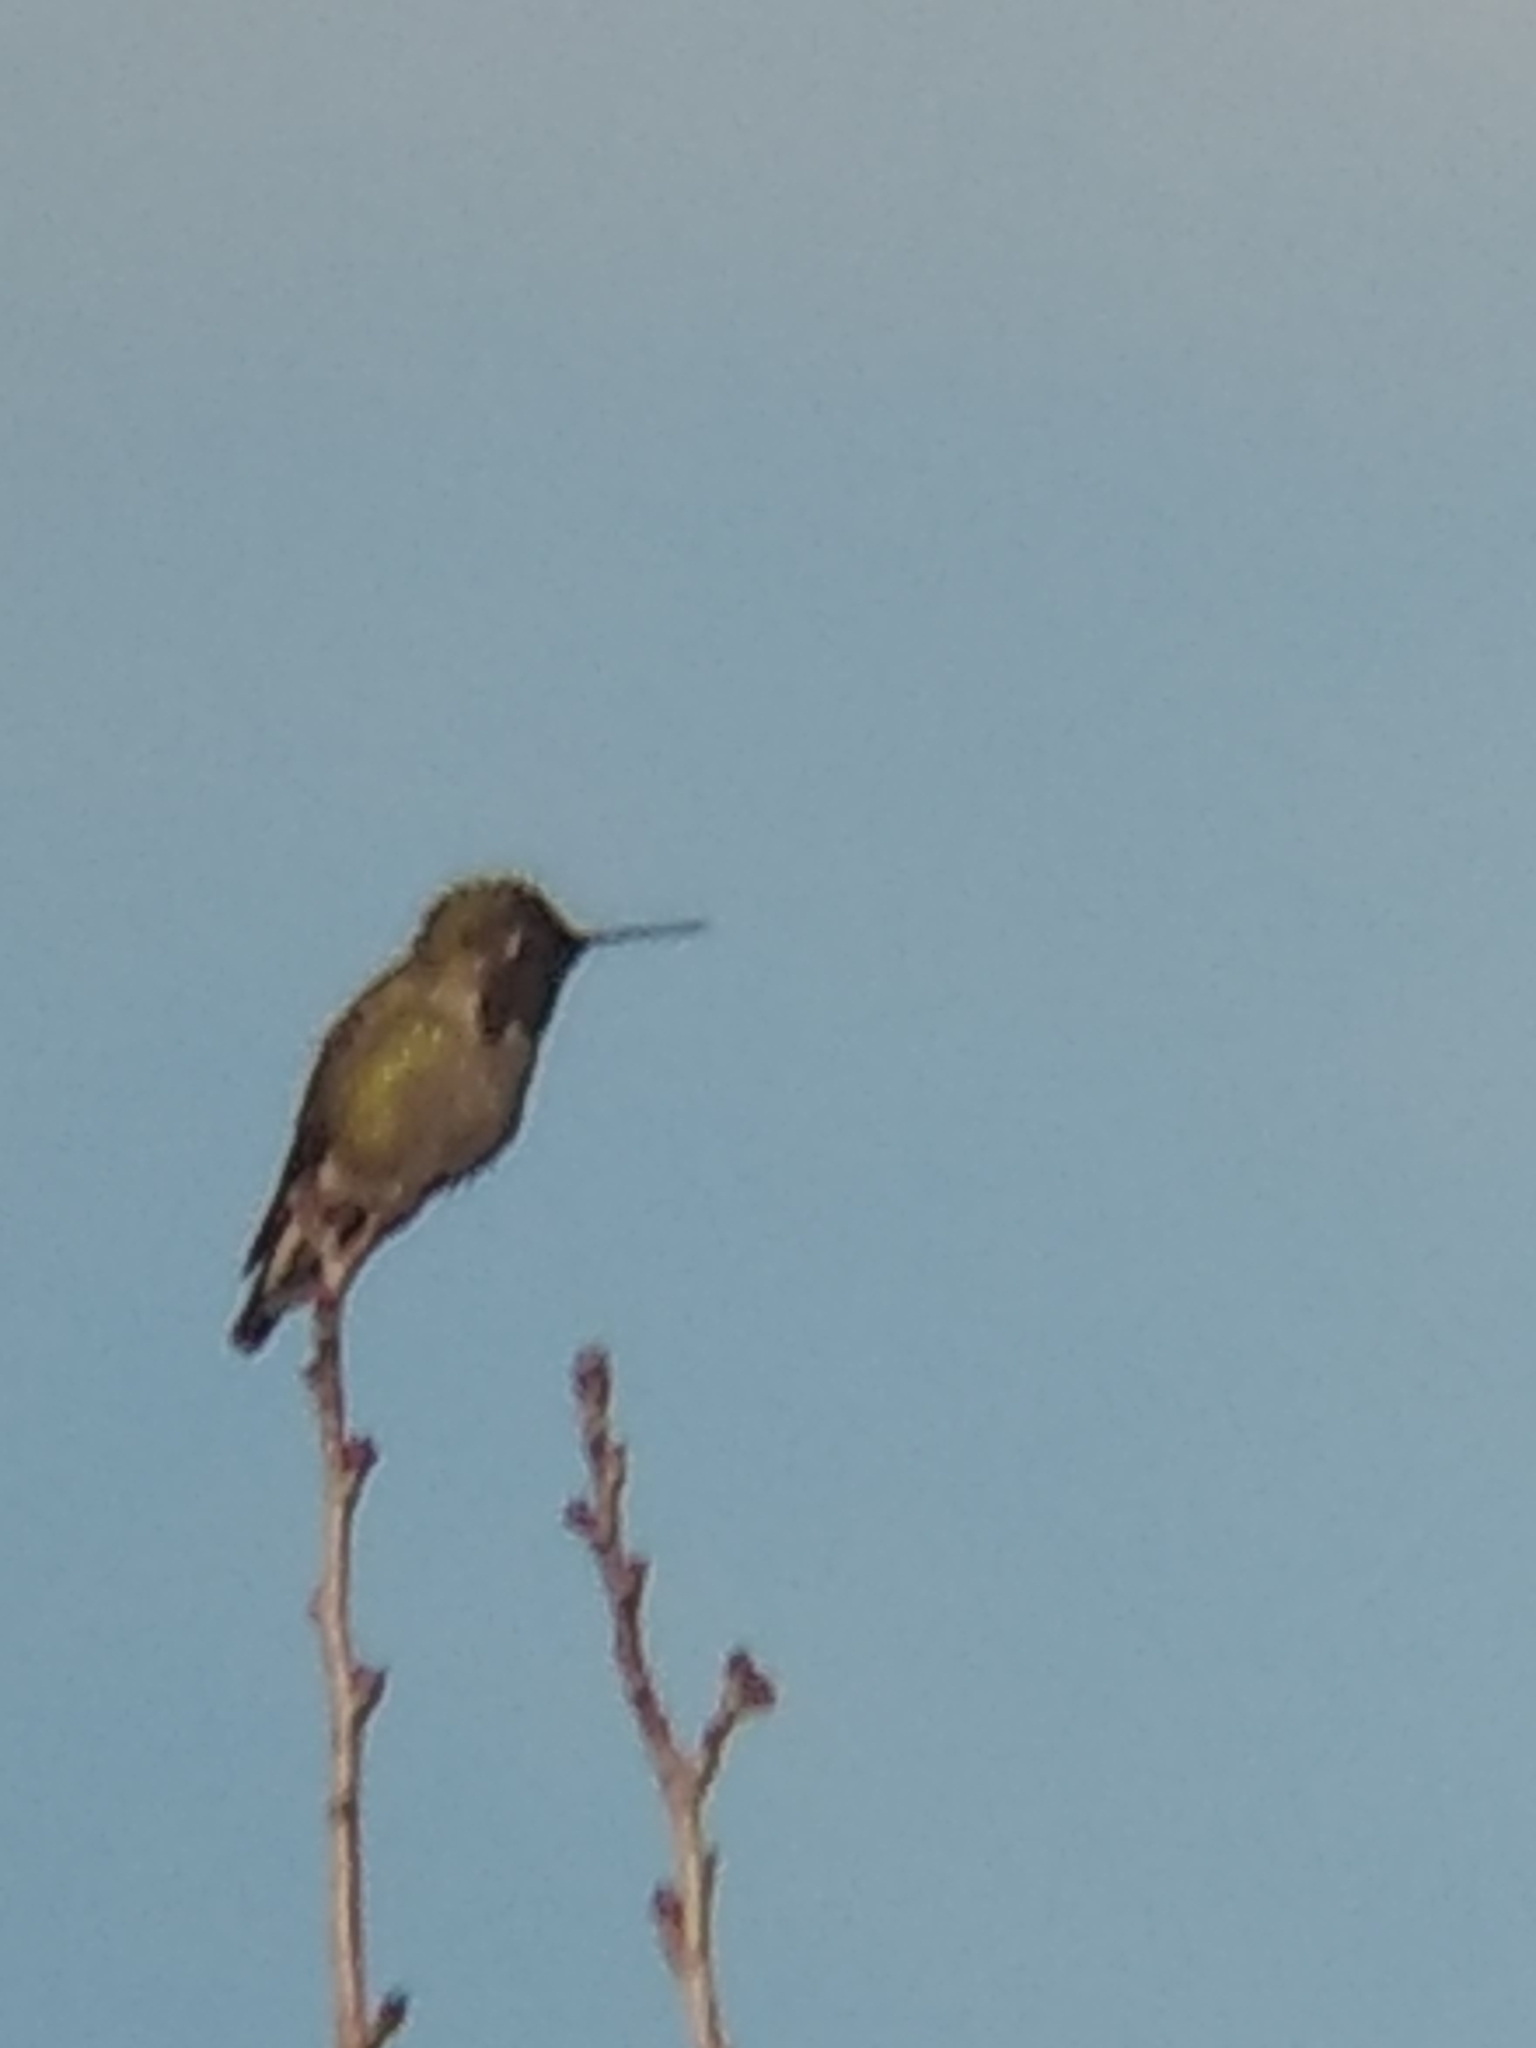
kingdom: Animalia
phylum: Chordata
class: Aves
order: Apodiformes
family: Trochilidae
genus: Calypte
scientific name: Calypte anna
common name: Anna's hummingbird
